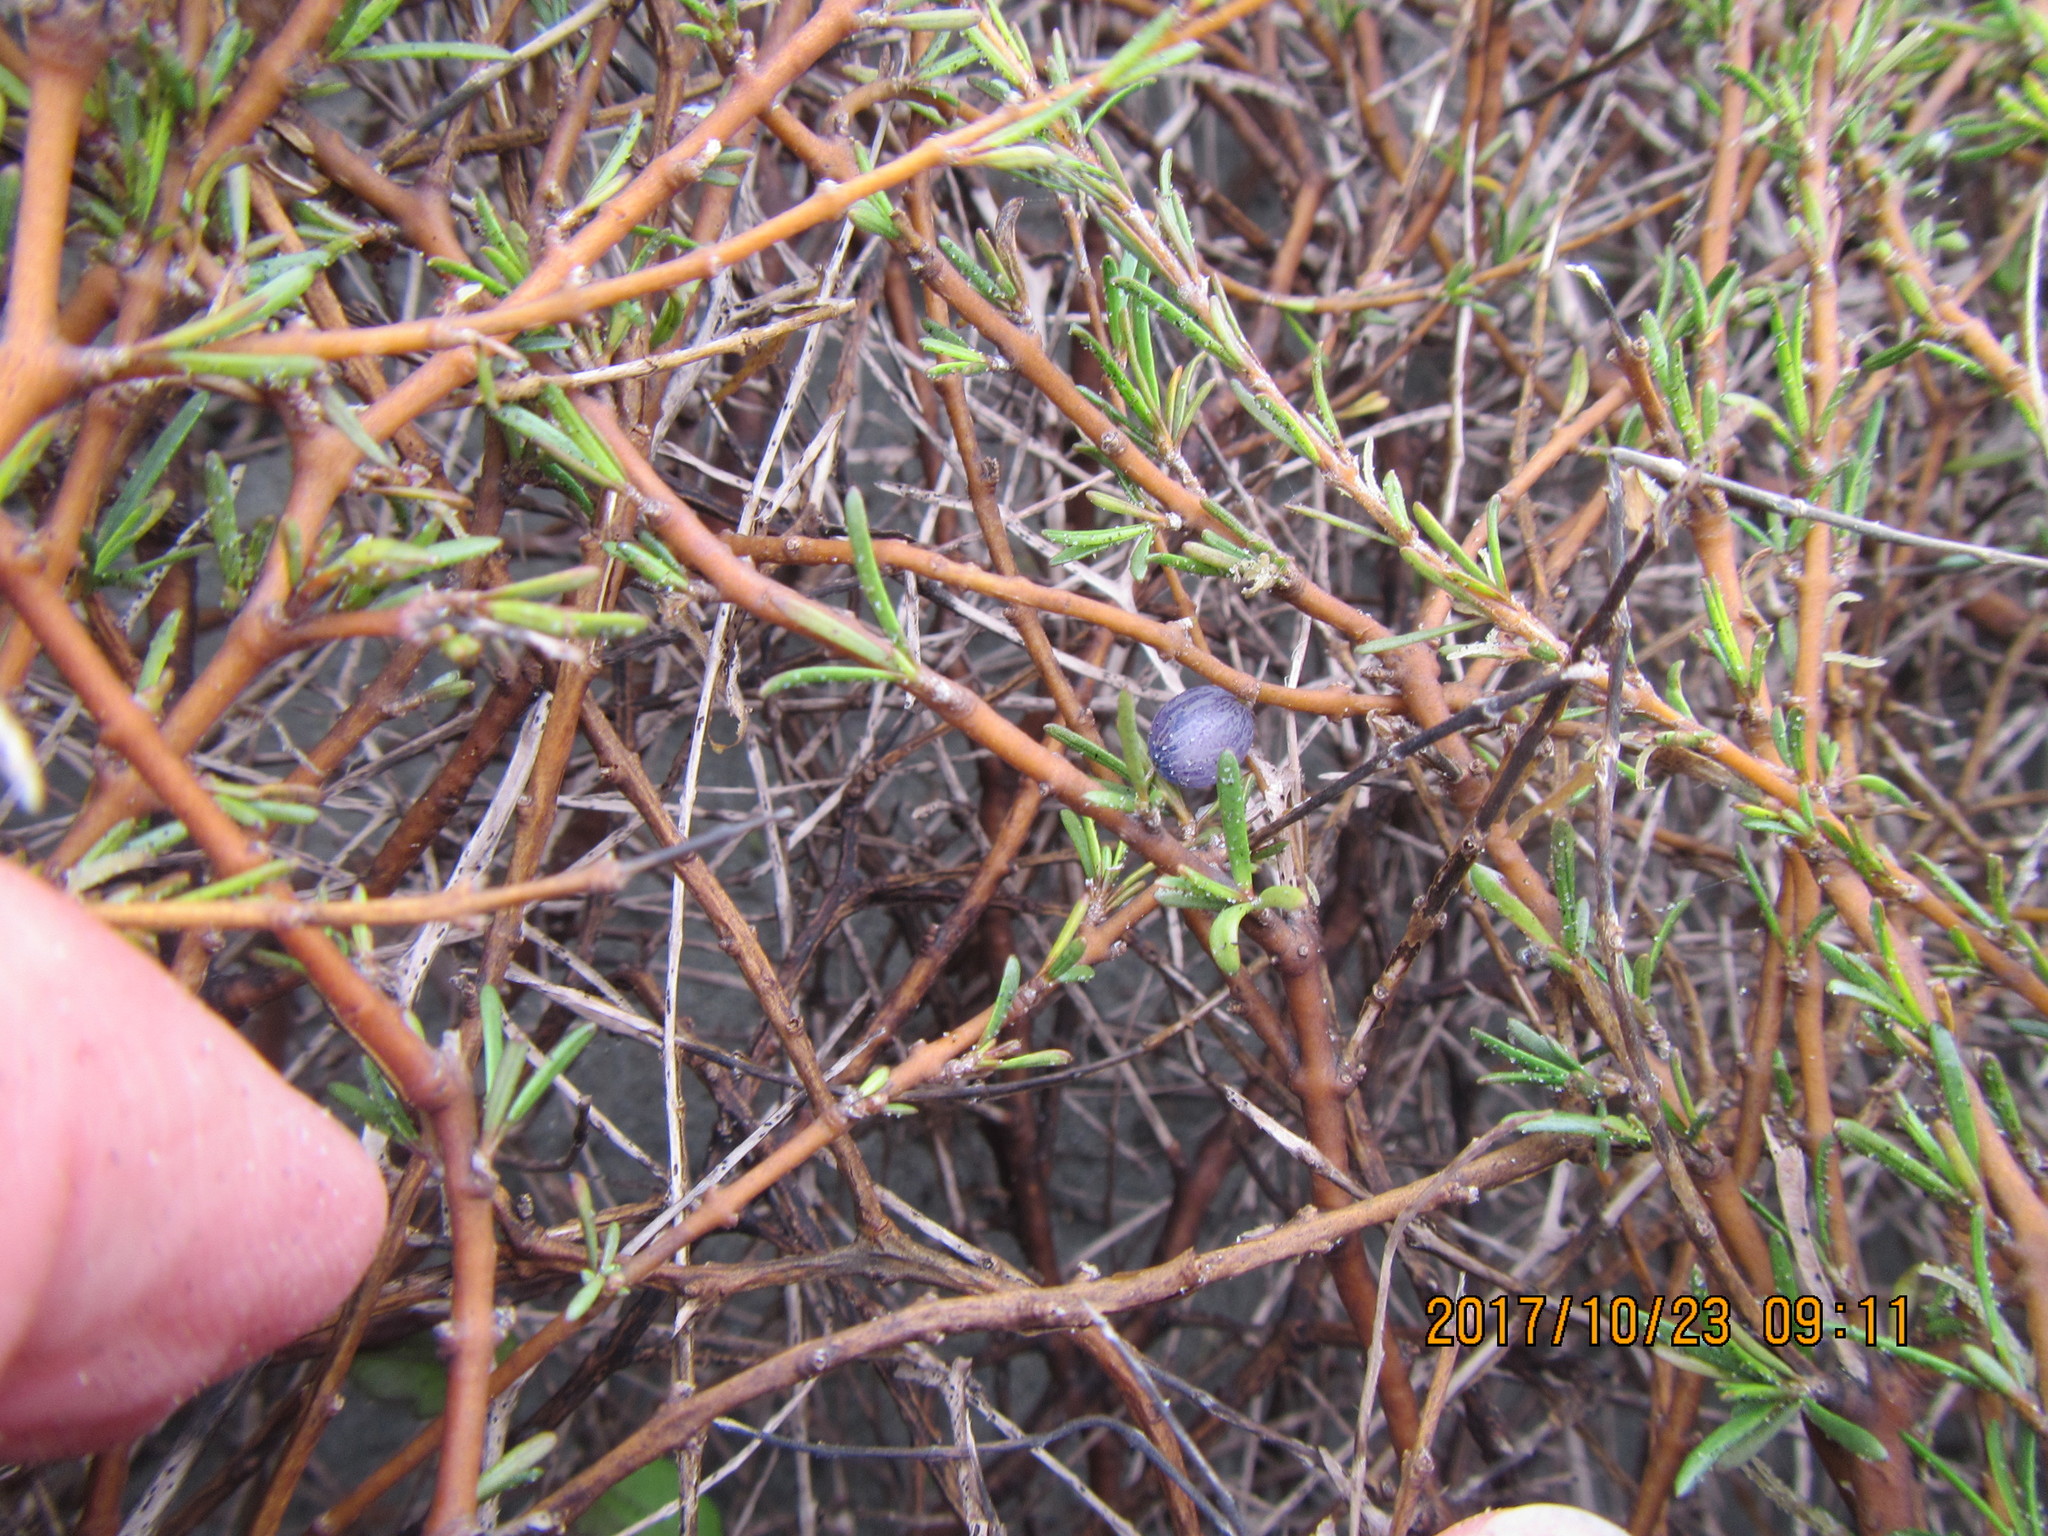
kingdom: Plantae
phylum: Tracheophyta
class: Magnoliopsida
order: Gentianales
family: Rubiaceae
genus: Coprosma
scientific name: Coprosma acerosa
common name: Sand coprosma
